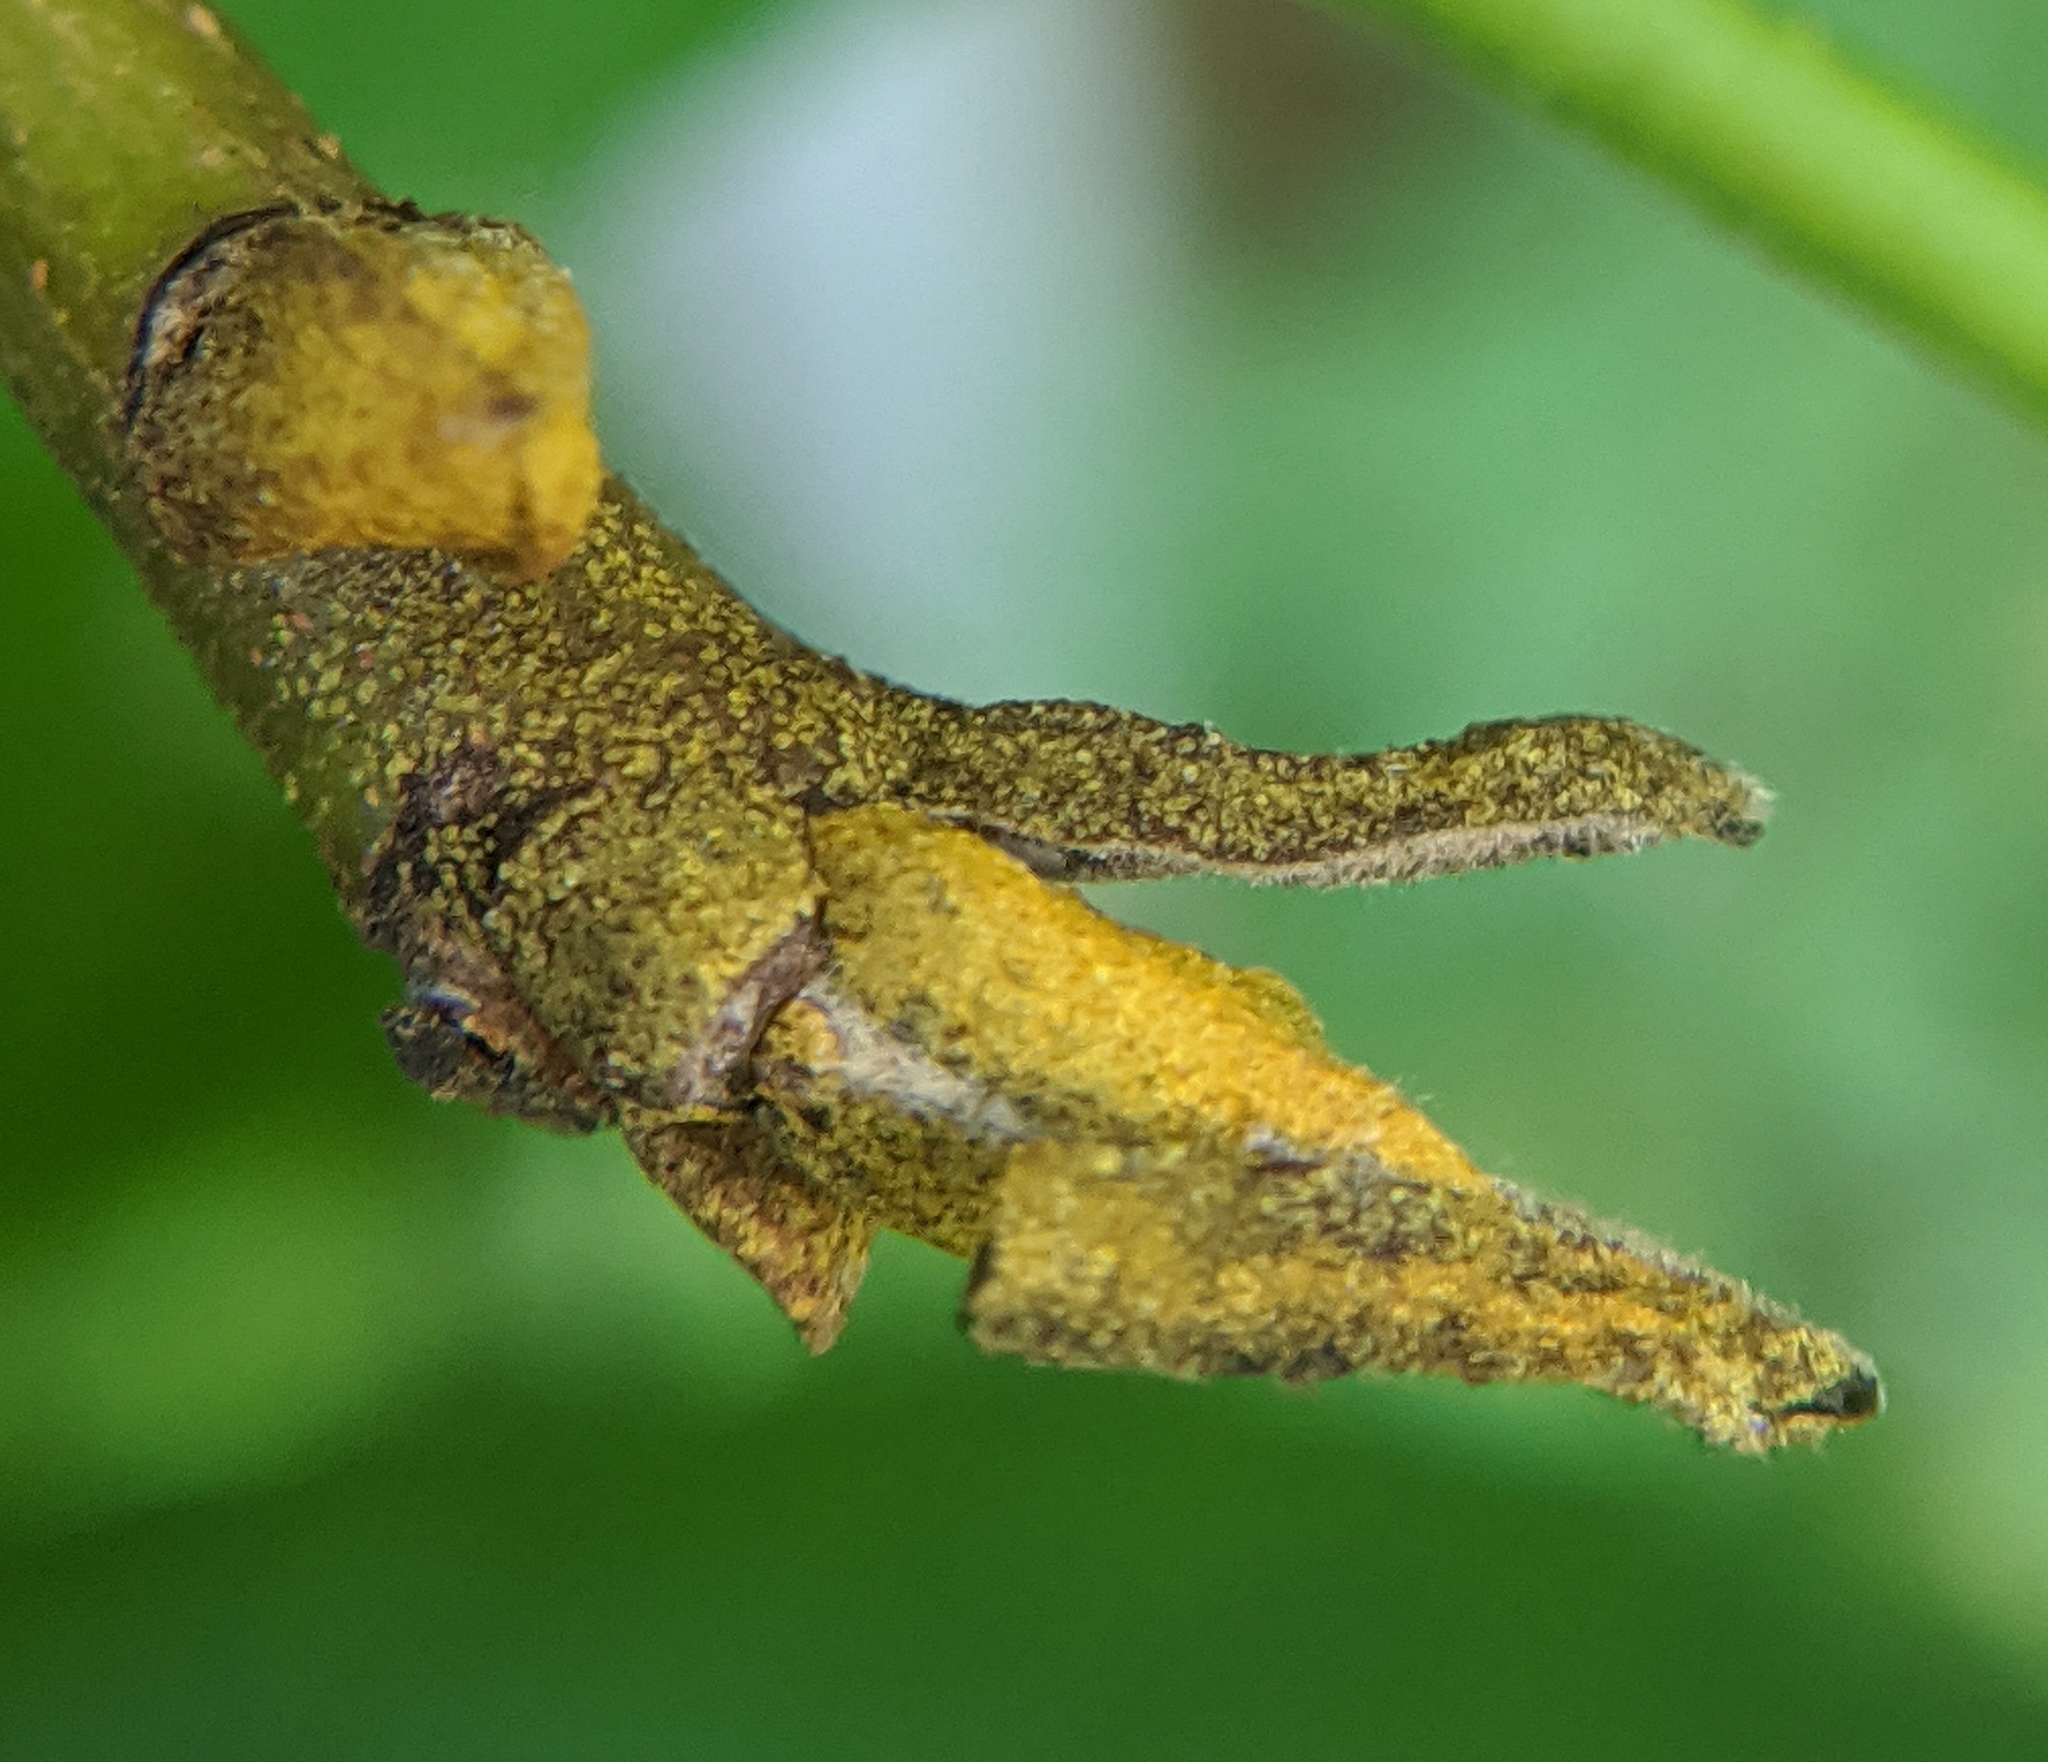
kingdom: Plantae
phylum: Tracheophyta
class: Magnoliopsida
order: Fagales
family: Juglandaceae
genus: Carya
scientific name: Carya cordiformis
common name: Bitternut hickory
